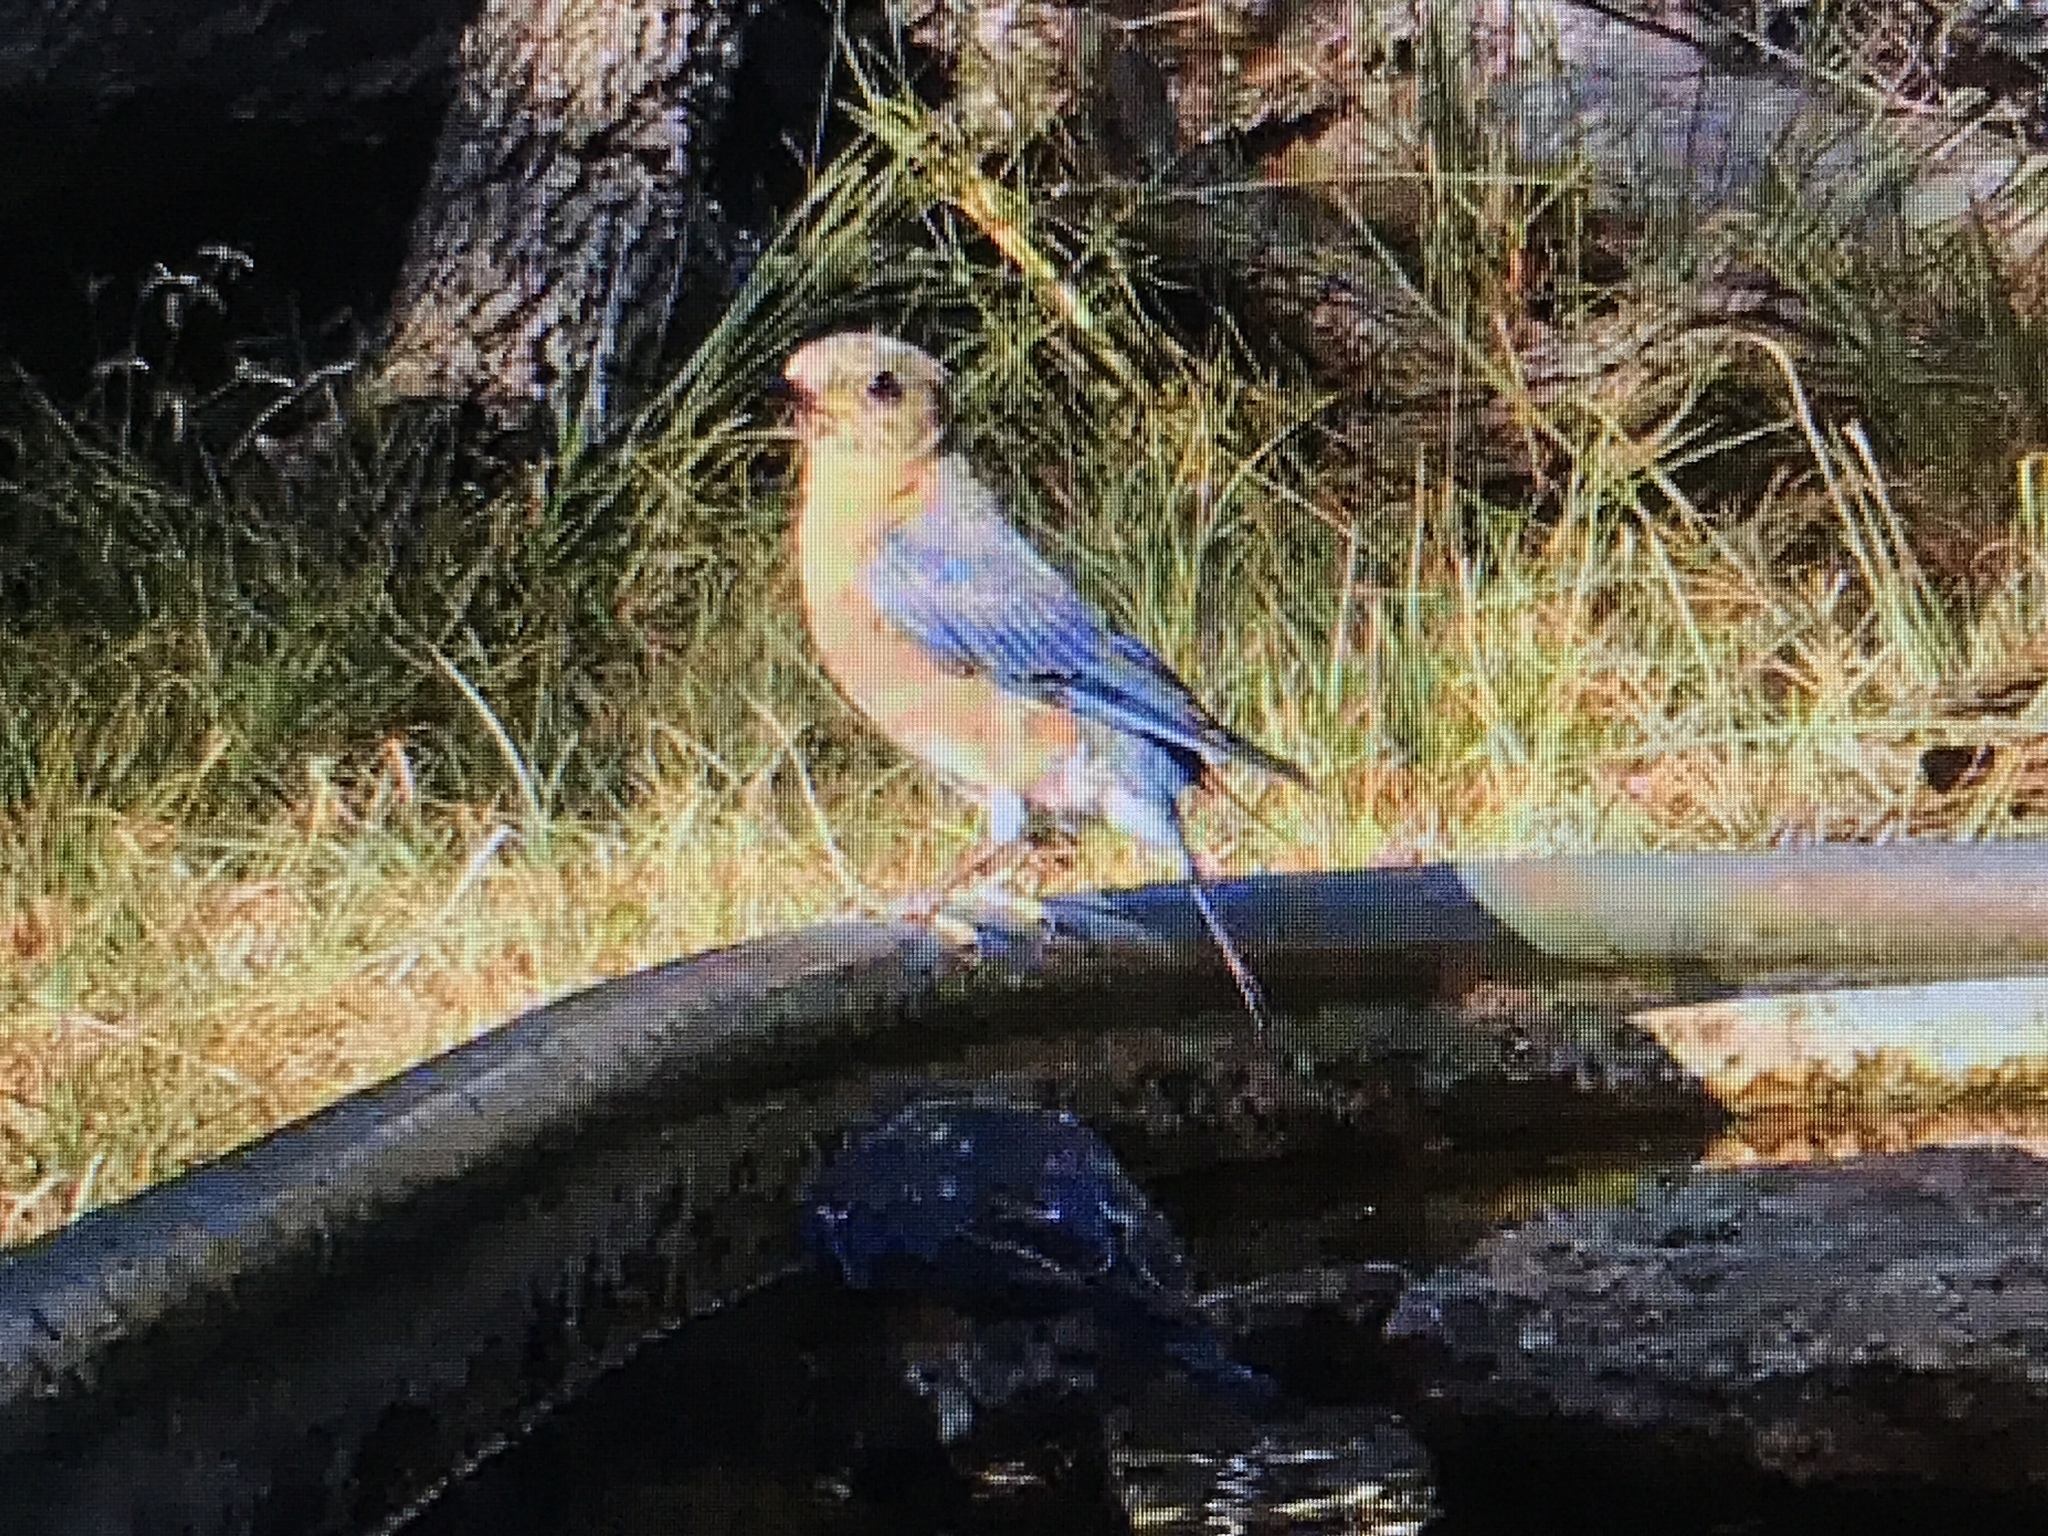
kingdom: Animalia
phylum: Chordata
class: Aves
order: Passeriformes
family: Turdidae
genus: Sialia
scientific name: Sialia sialis
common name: Eastern bluebird
